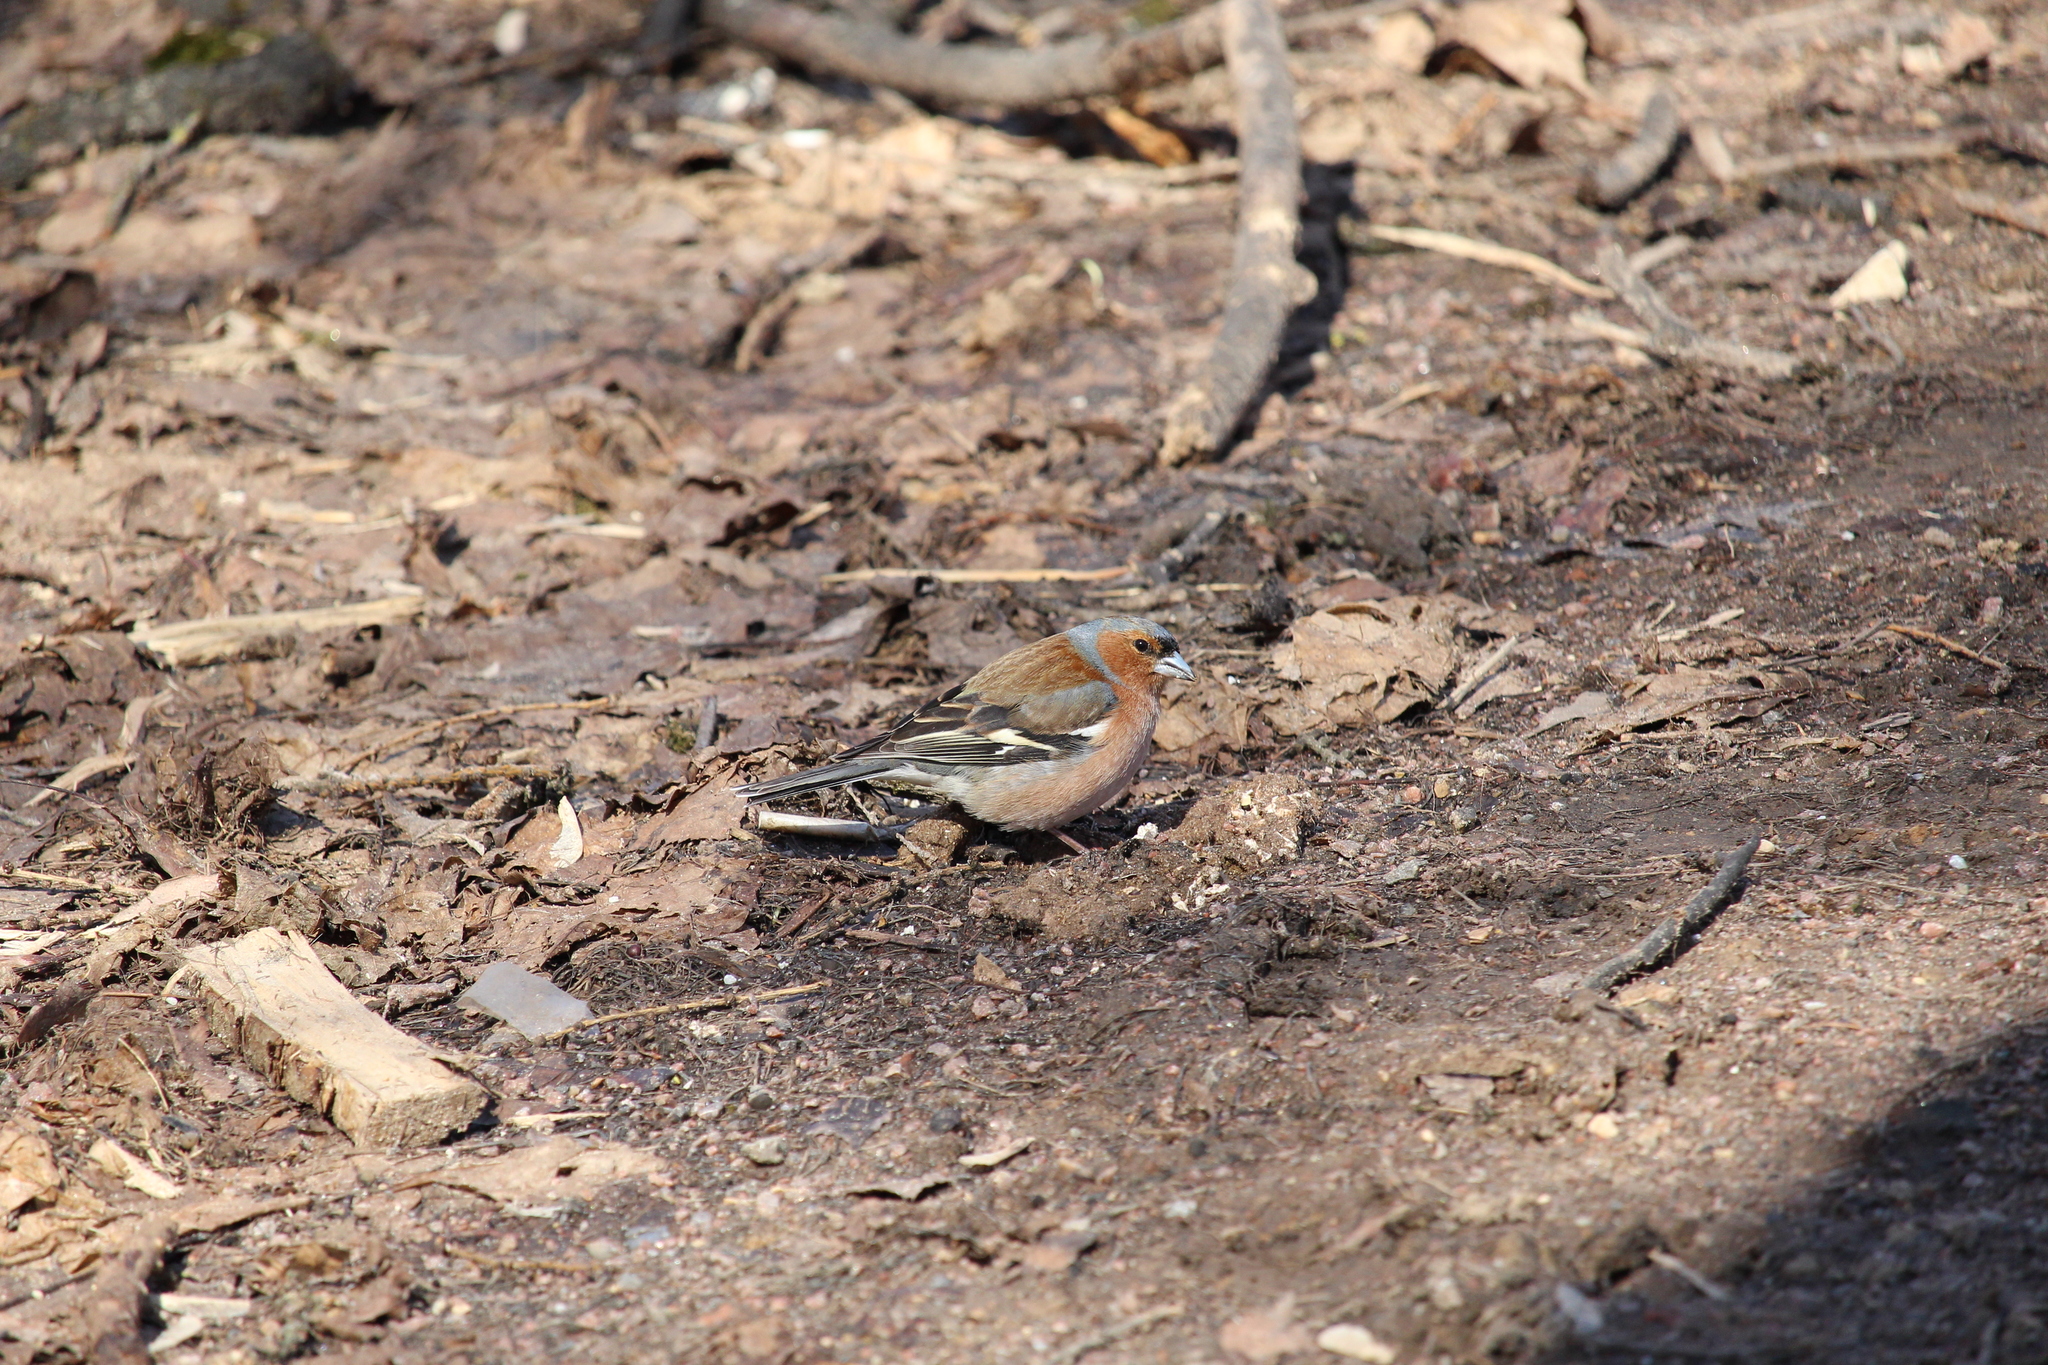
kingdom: Animalia
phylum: Chordata
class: Aves
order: Passeriformes
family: Fringillidae
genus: Fringilla
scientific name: Fringilla coelebs
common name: Common chaffinch
